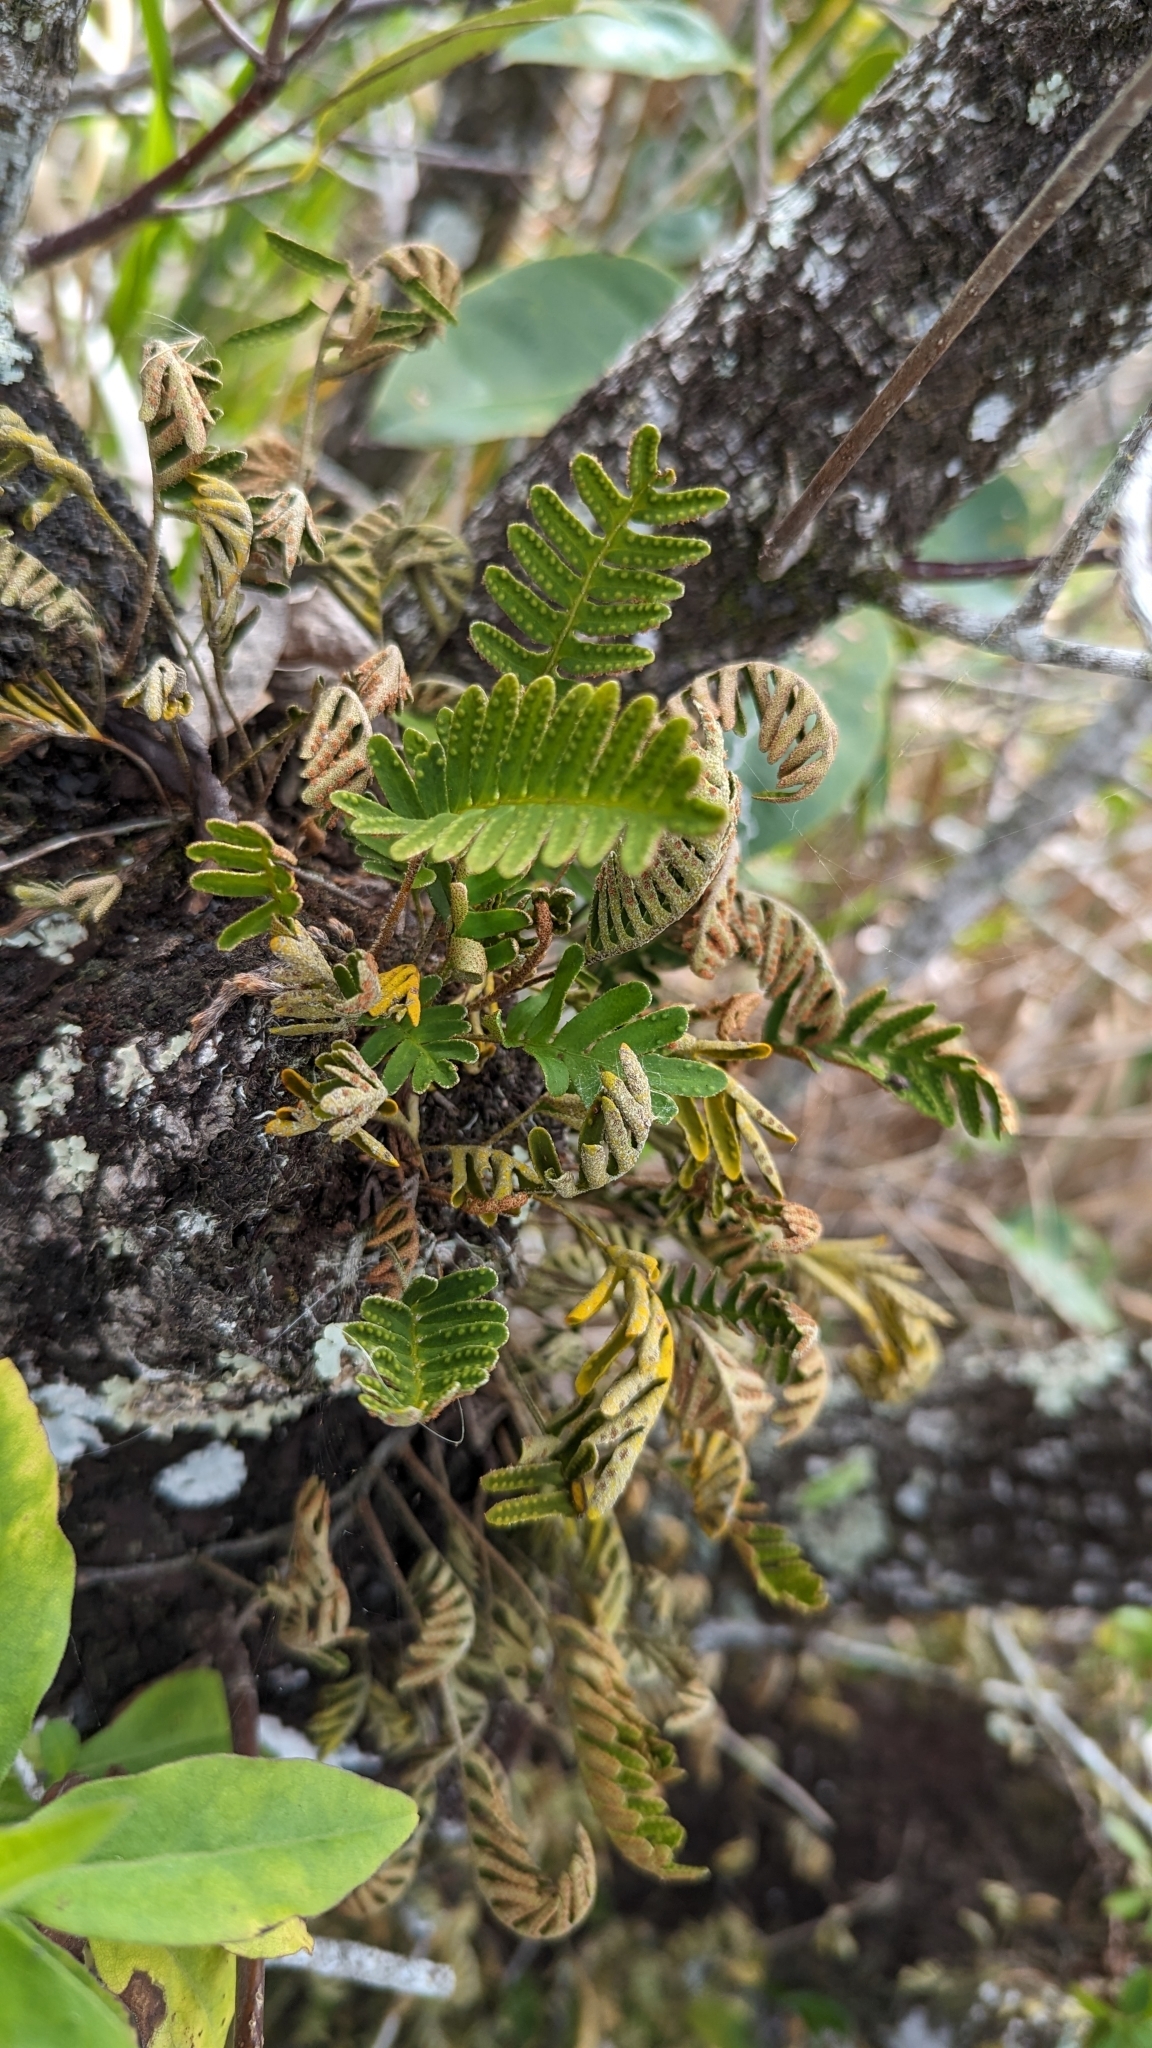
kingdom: Plantae
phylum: Tracheophyta
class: Polypodiopsida
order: Polypodiales
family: Polypodiaceae
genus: Pleopeltis
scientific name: Pleopeltis michauxiana
